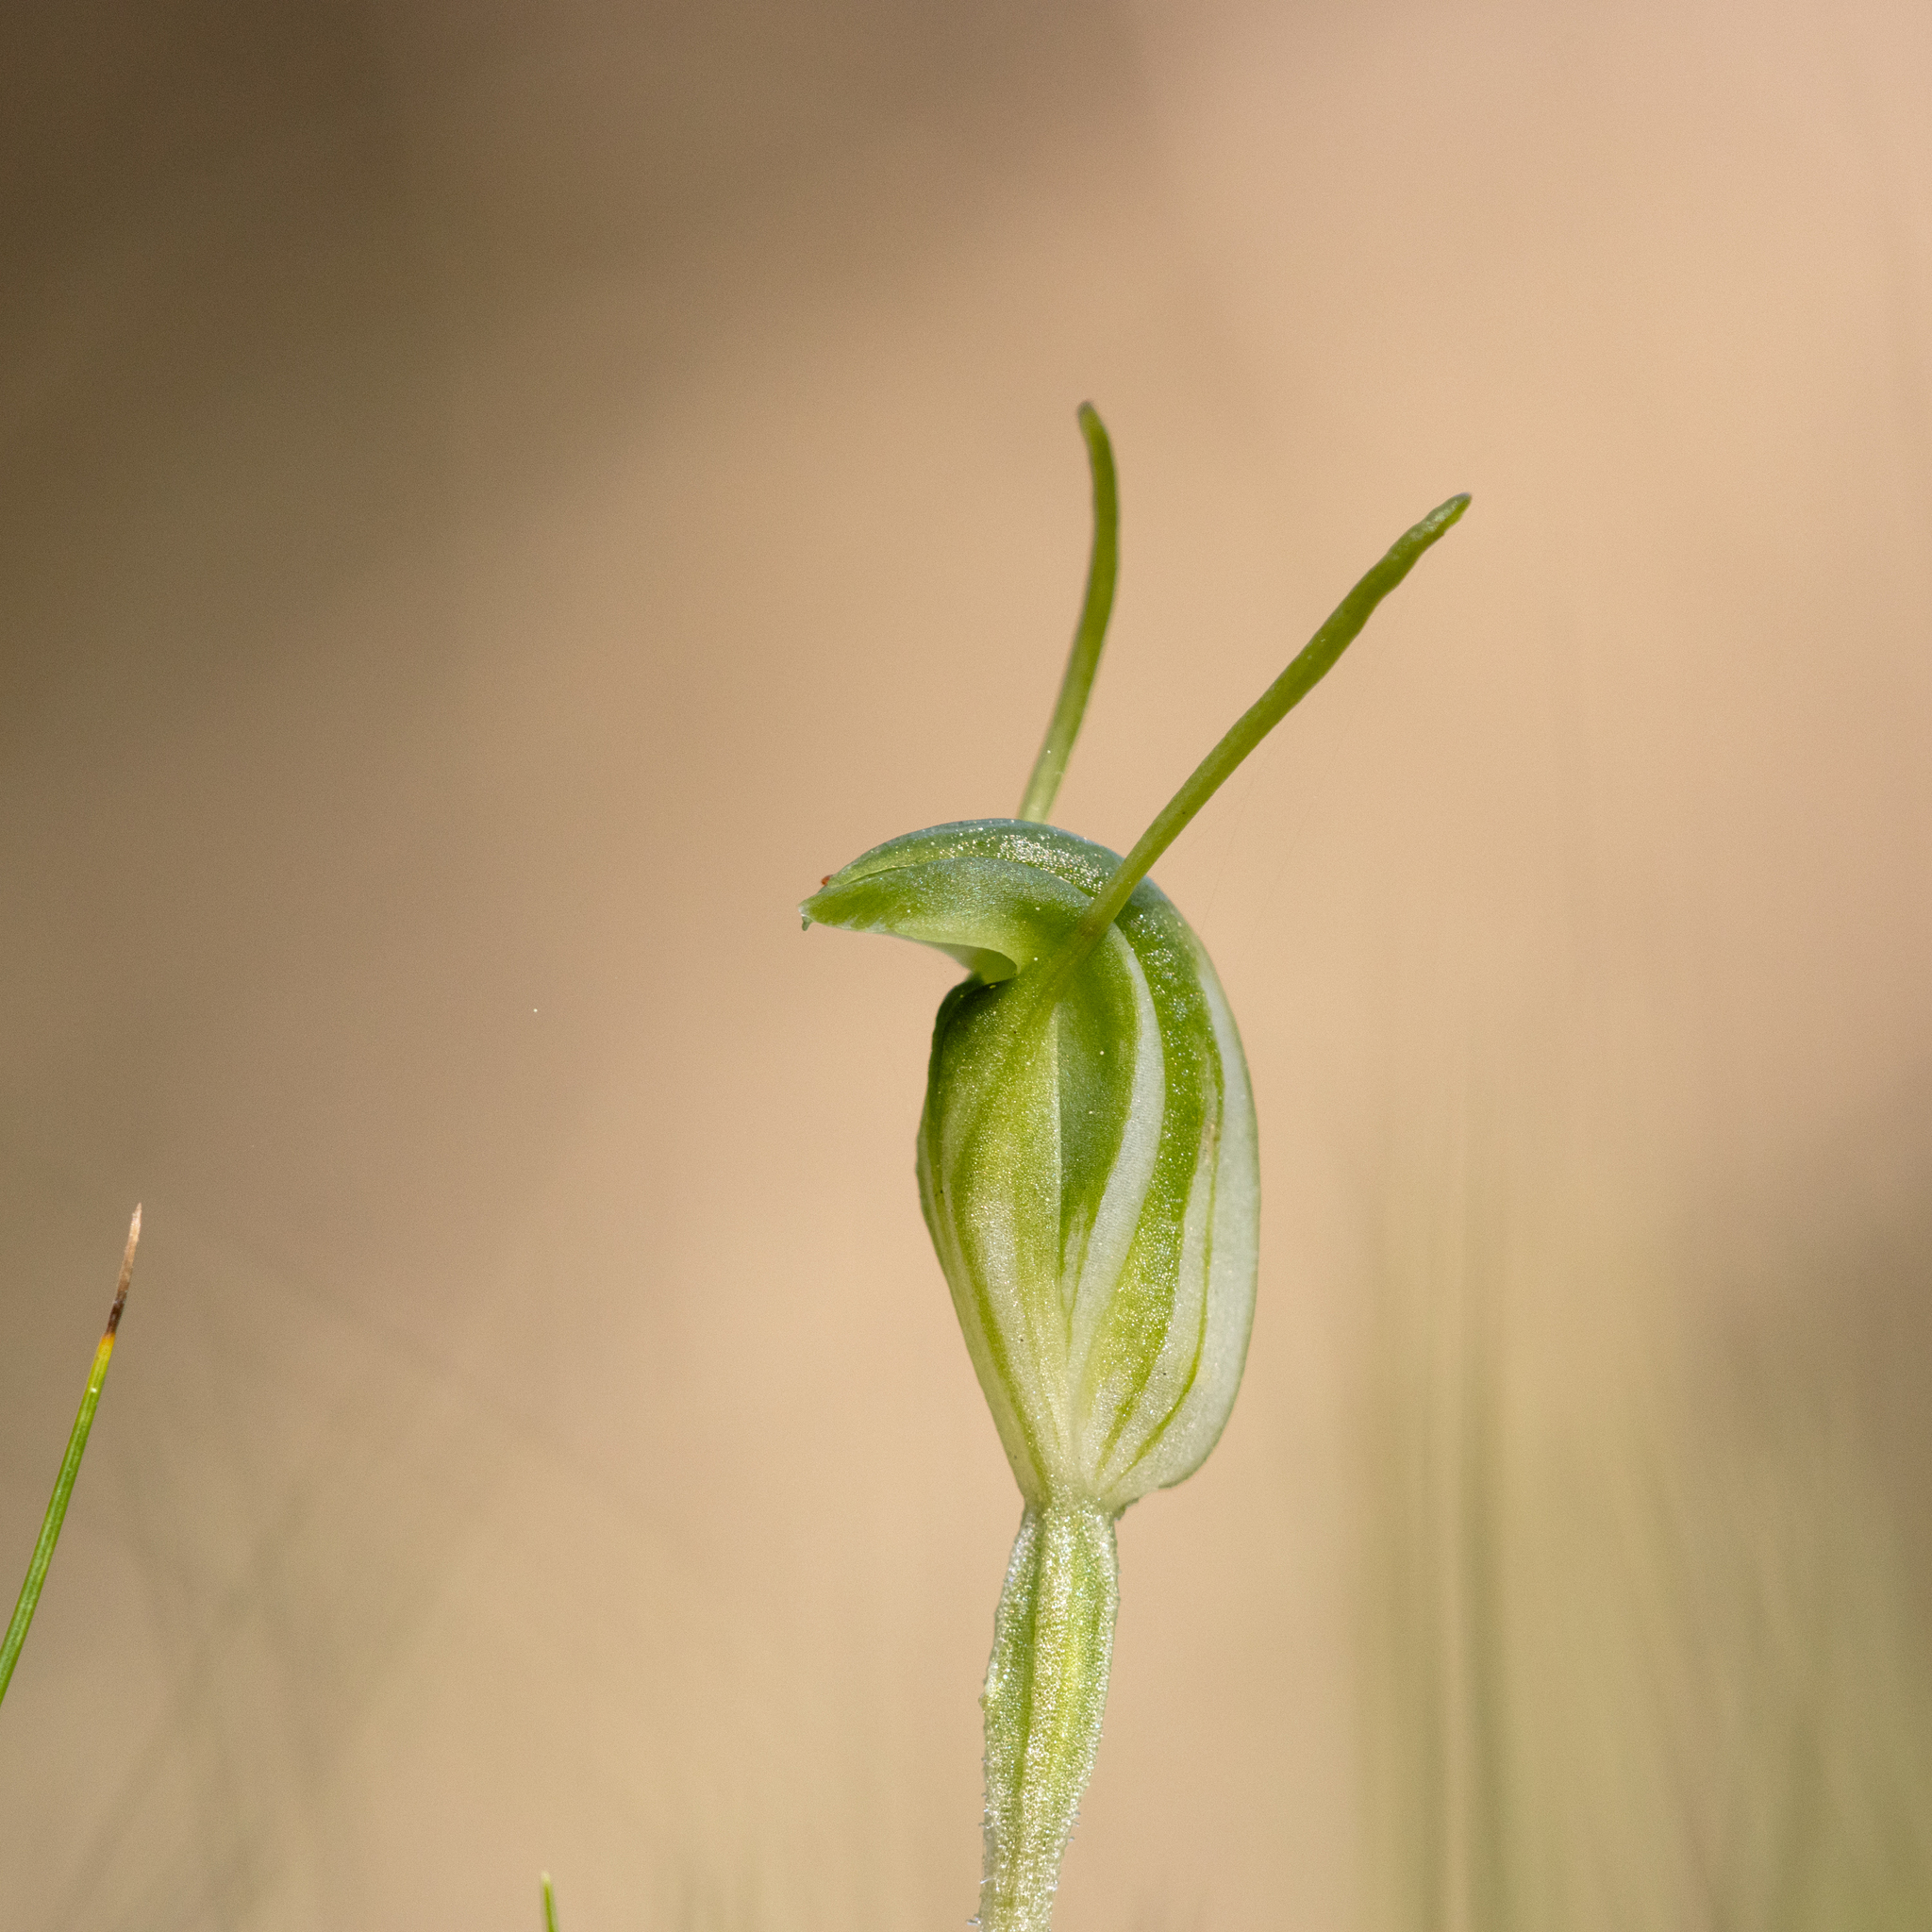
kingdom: Plantae
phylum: Tracheophyta
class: Liliopsida
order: Asparagales
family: Orchidaceae
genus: Pterostylis
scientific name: Pterostylis nana
